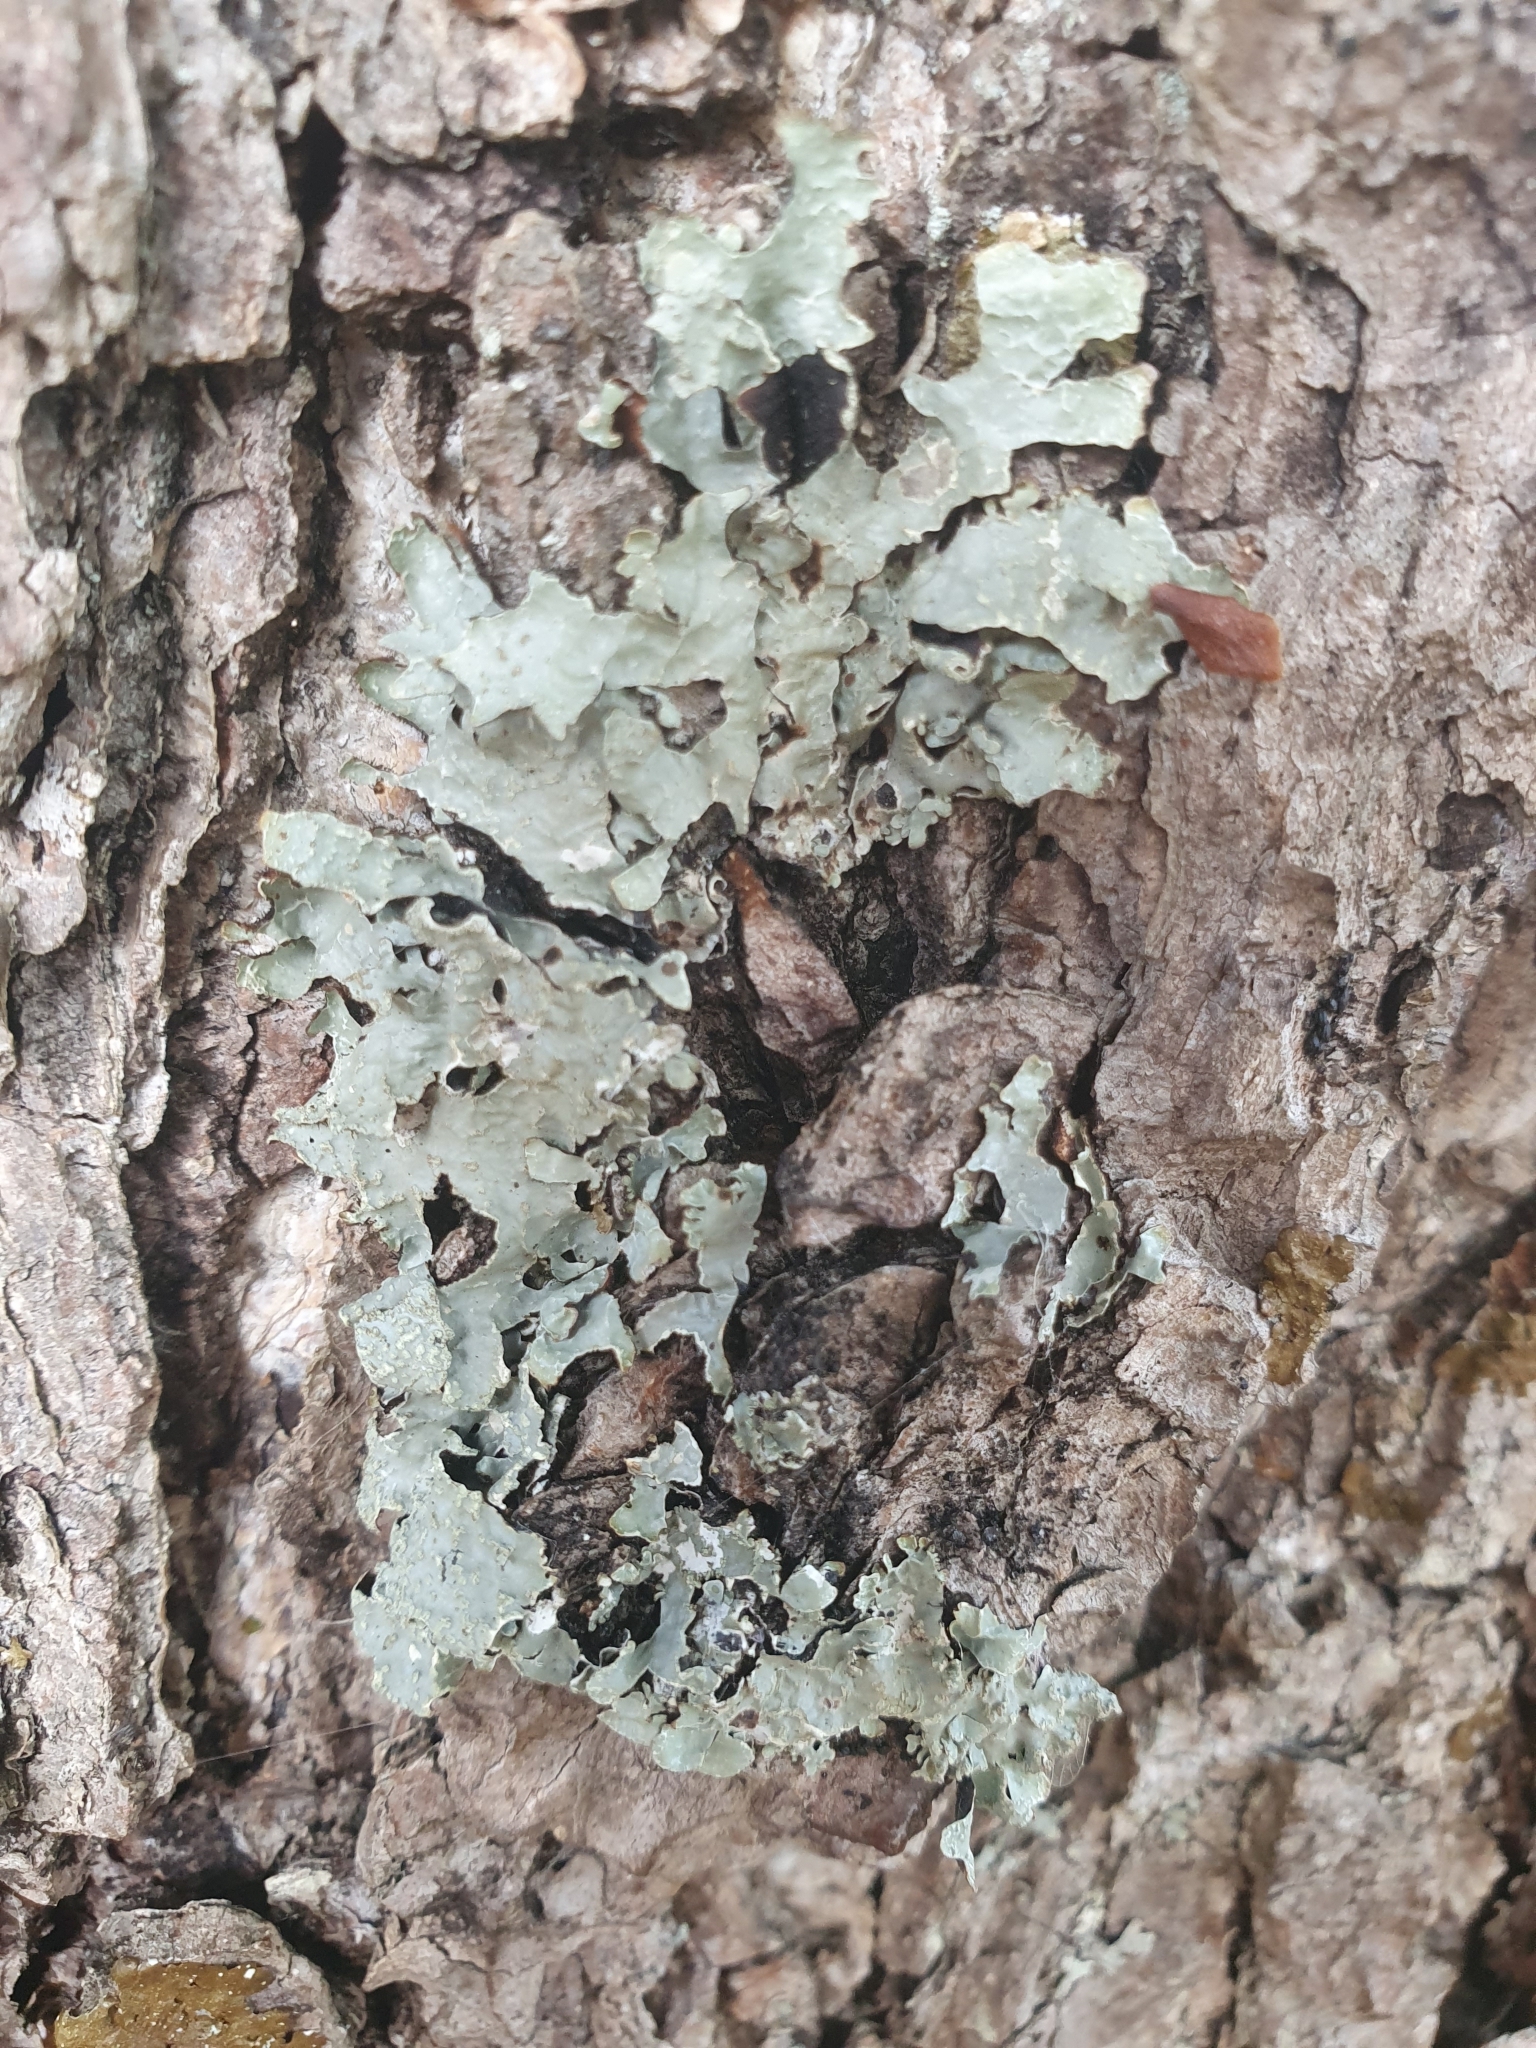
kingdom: Fungi
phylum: Ascomycota
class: Lecanoromycetes
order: Lecanorales
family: Parmeliaceae
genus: Parmelia
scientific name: Parmelia sulcata
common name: Netted shield lichen
